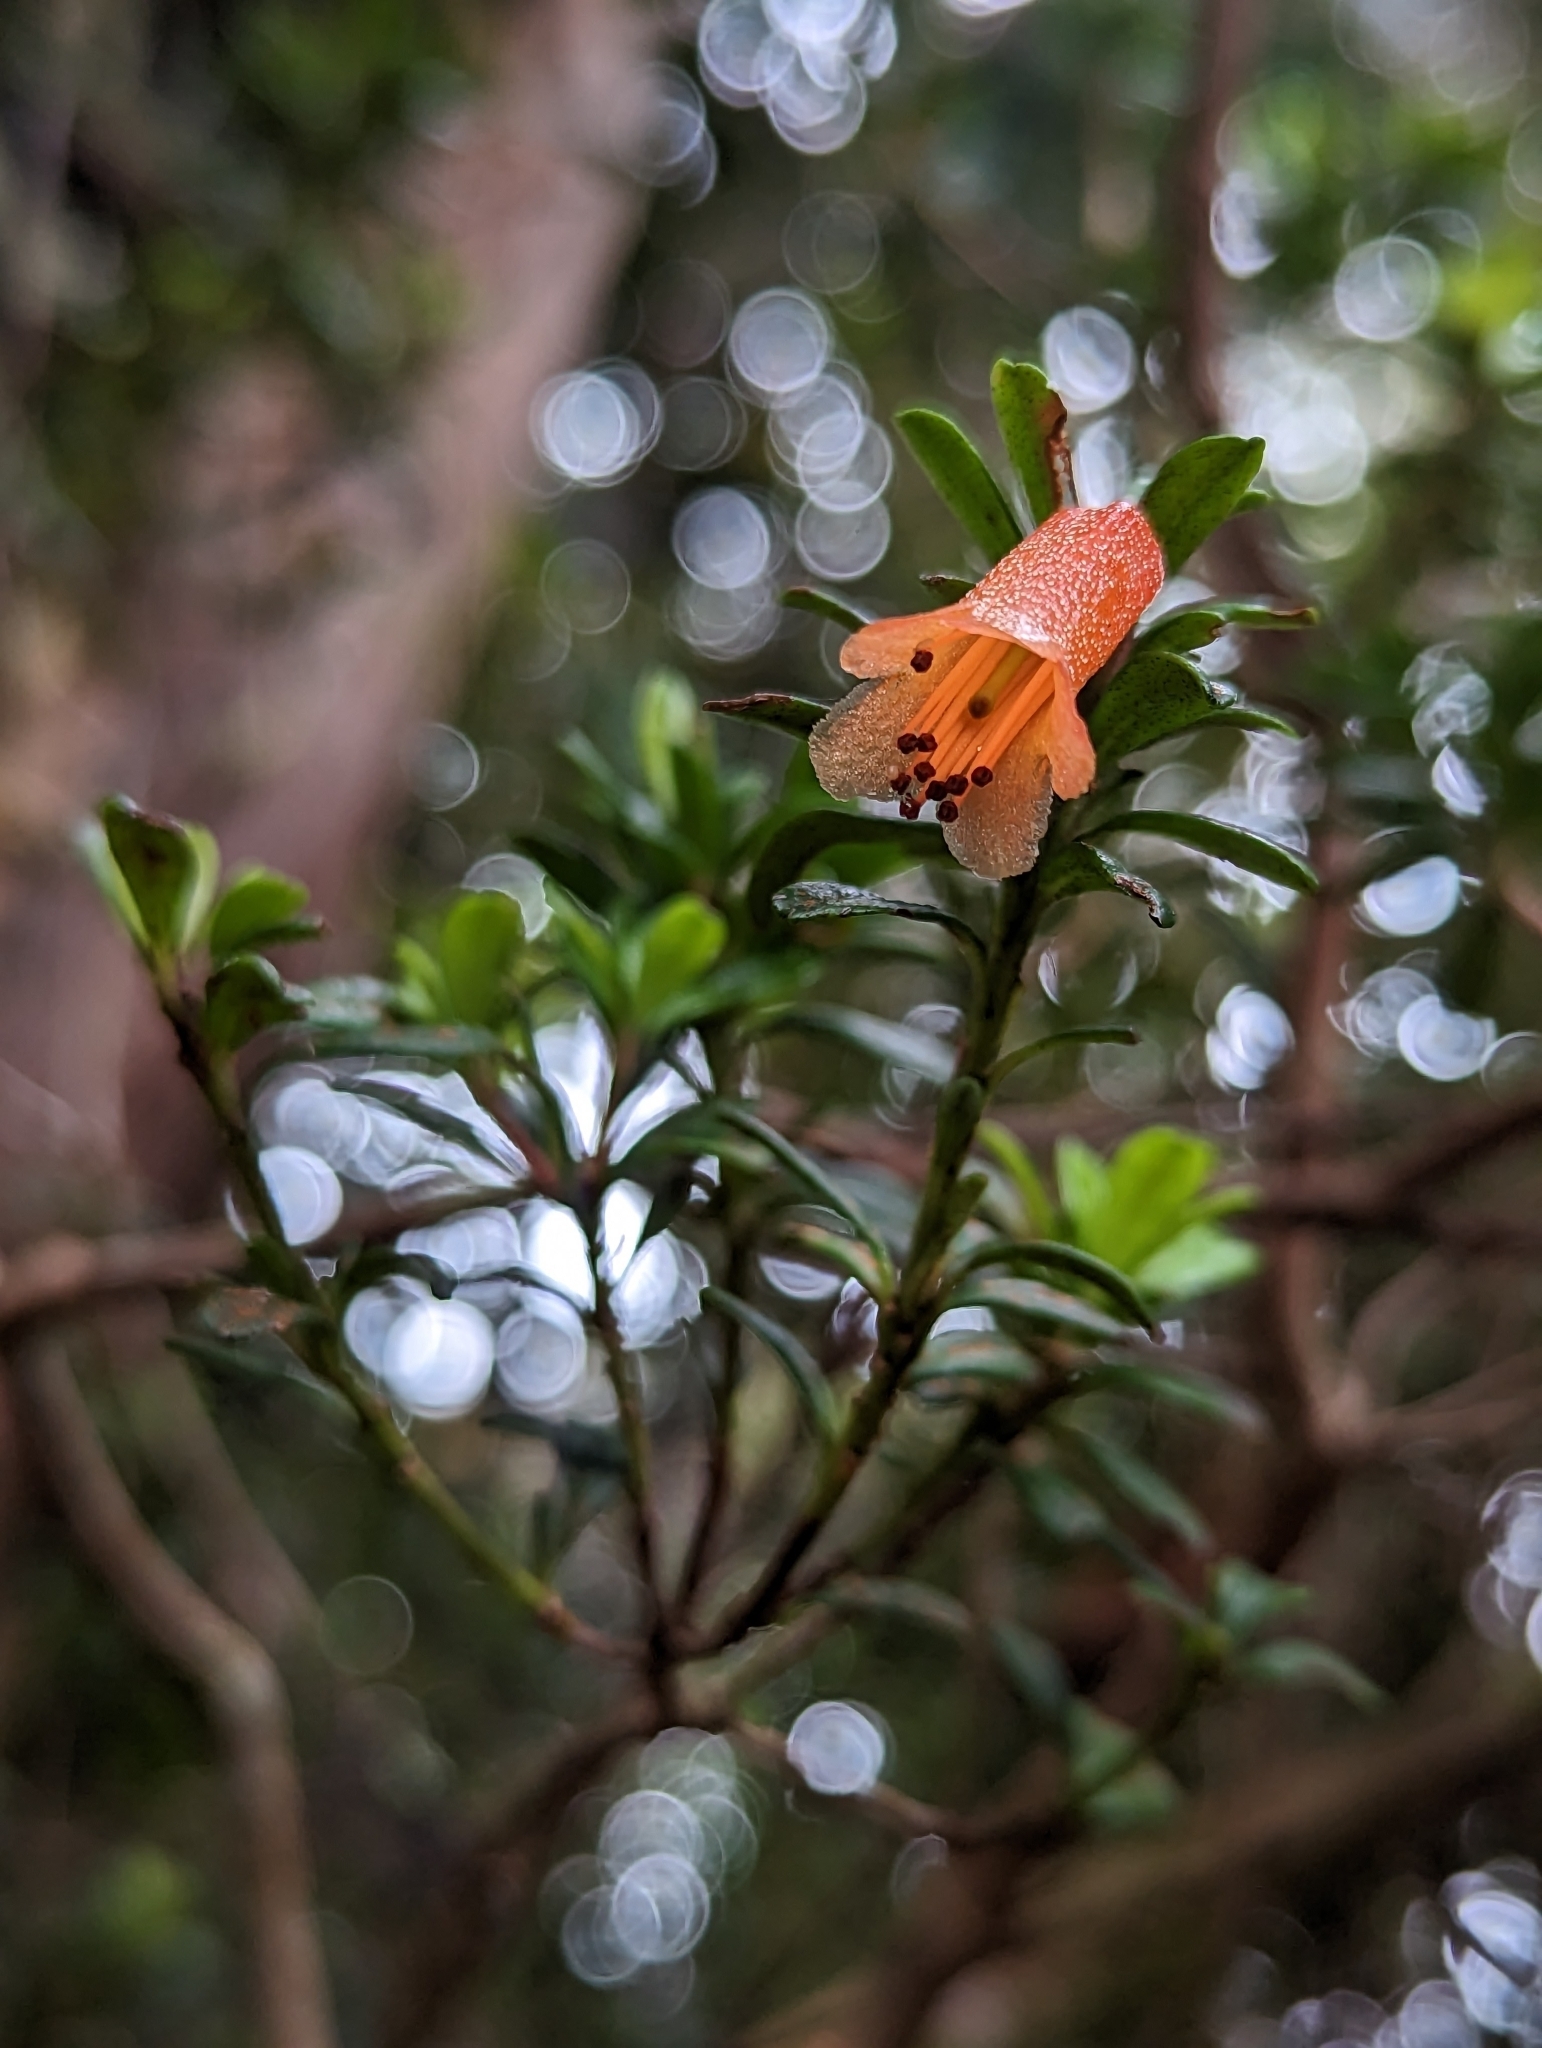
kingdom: Plantae
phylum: Tracheophyta
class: Magnoliopsida
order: Ericales
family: Ericaceae
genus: Rhododendron
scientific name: Rhododendron cuneifolium
